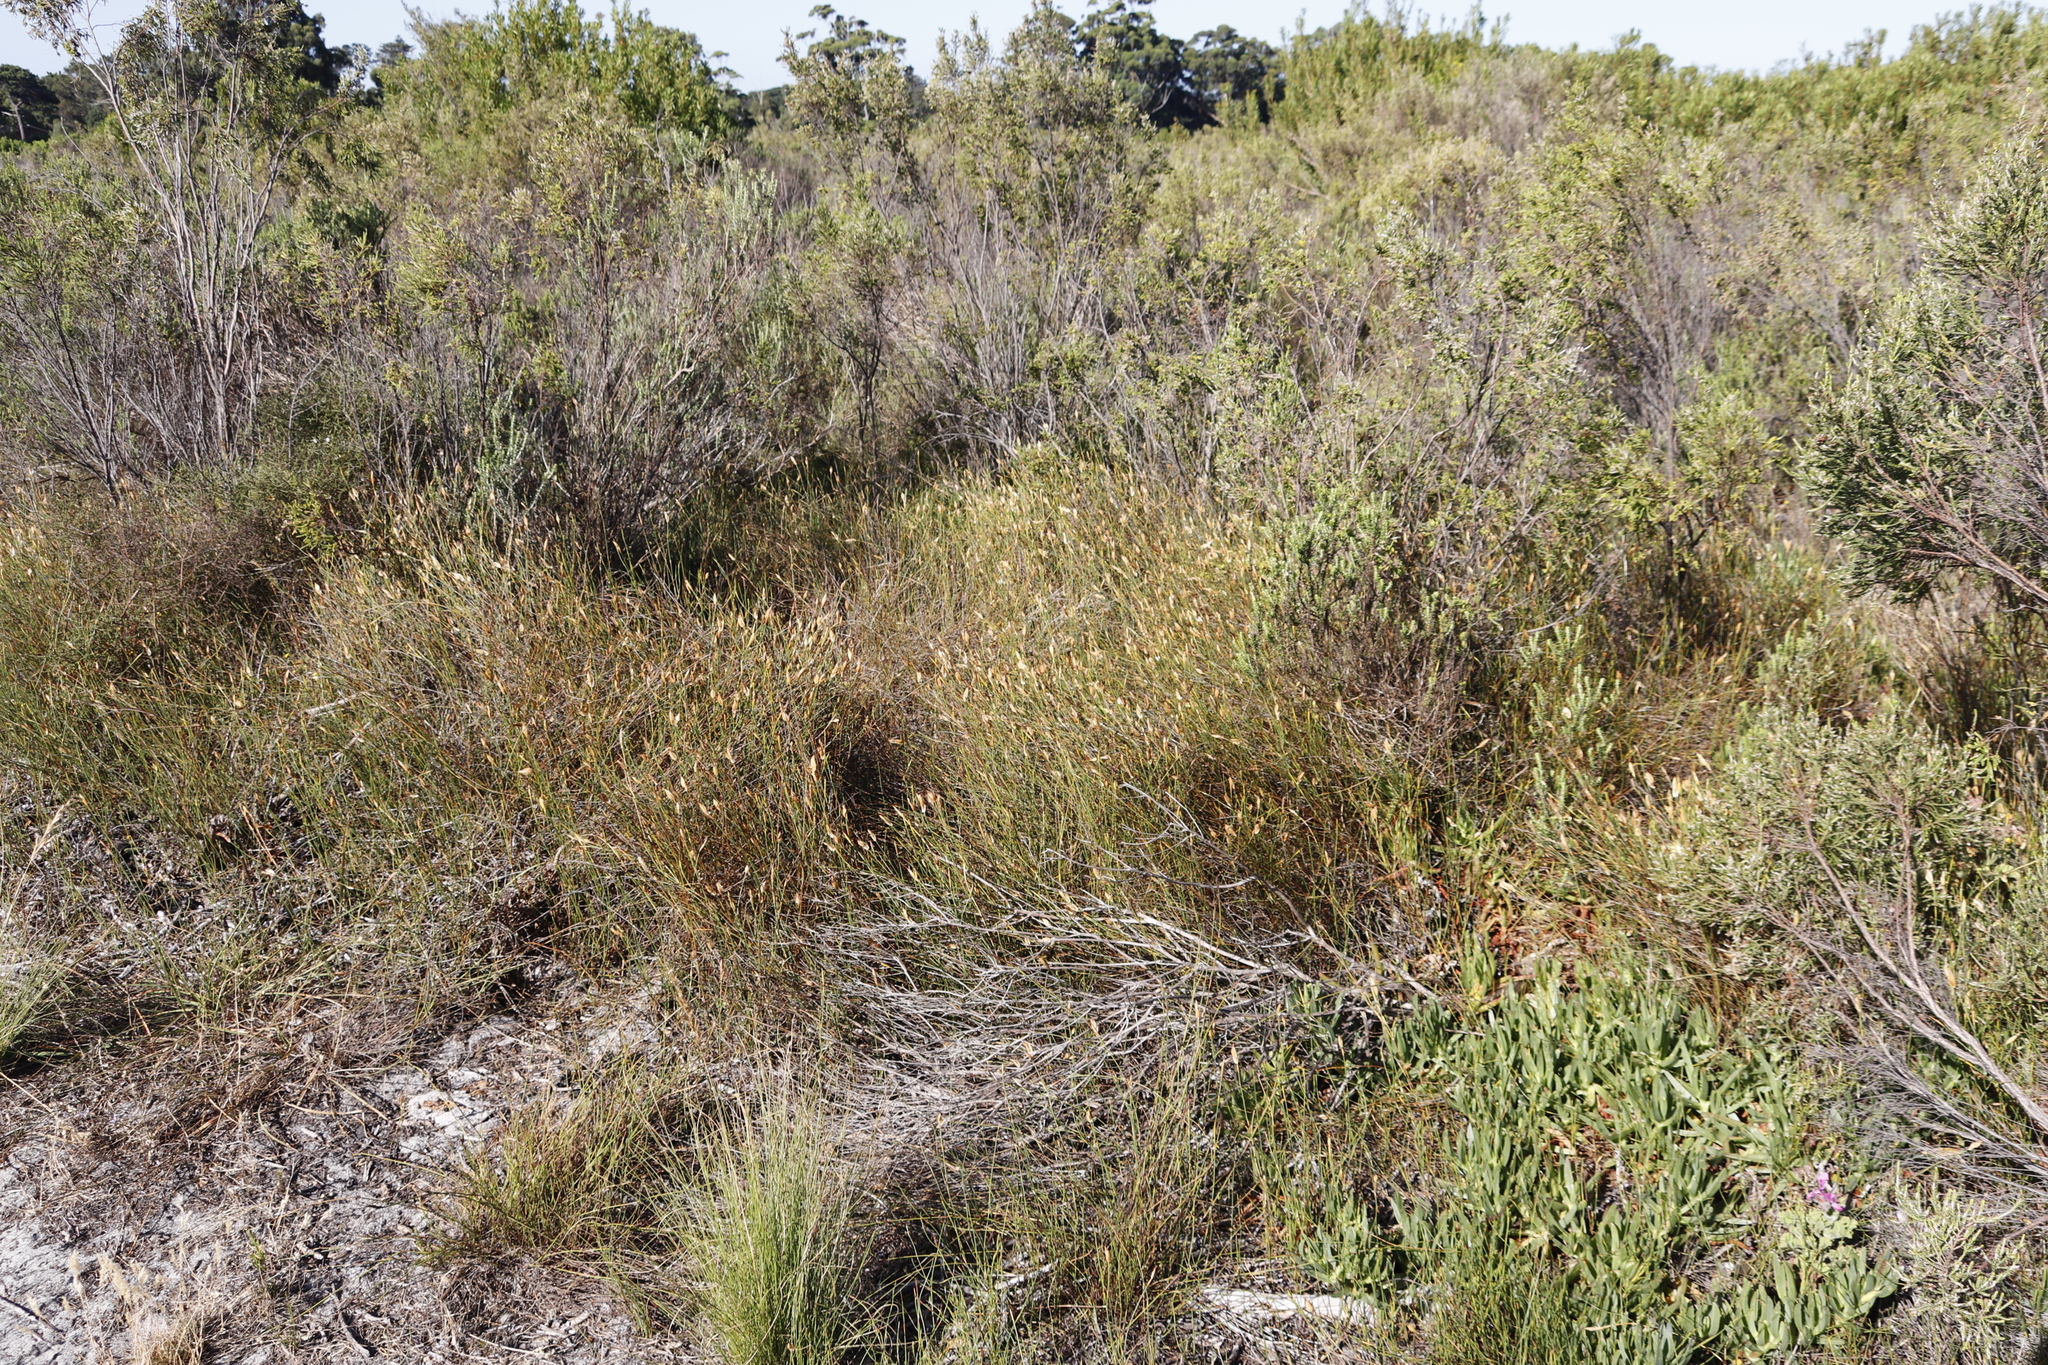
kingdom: Plantae
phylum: Tracheophyta
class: Liliopsida
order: Poales
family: Restionaceae
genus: Willdenowia
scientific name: Willdenowia sulcata
